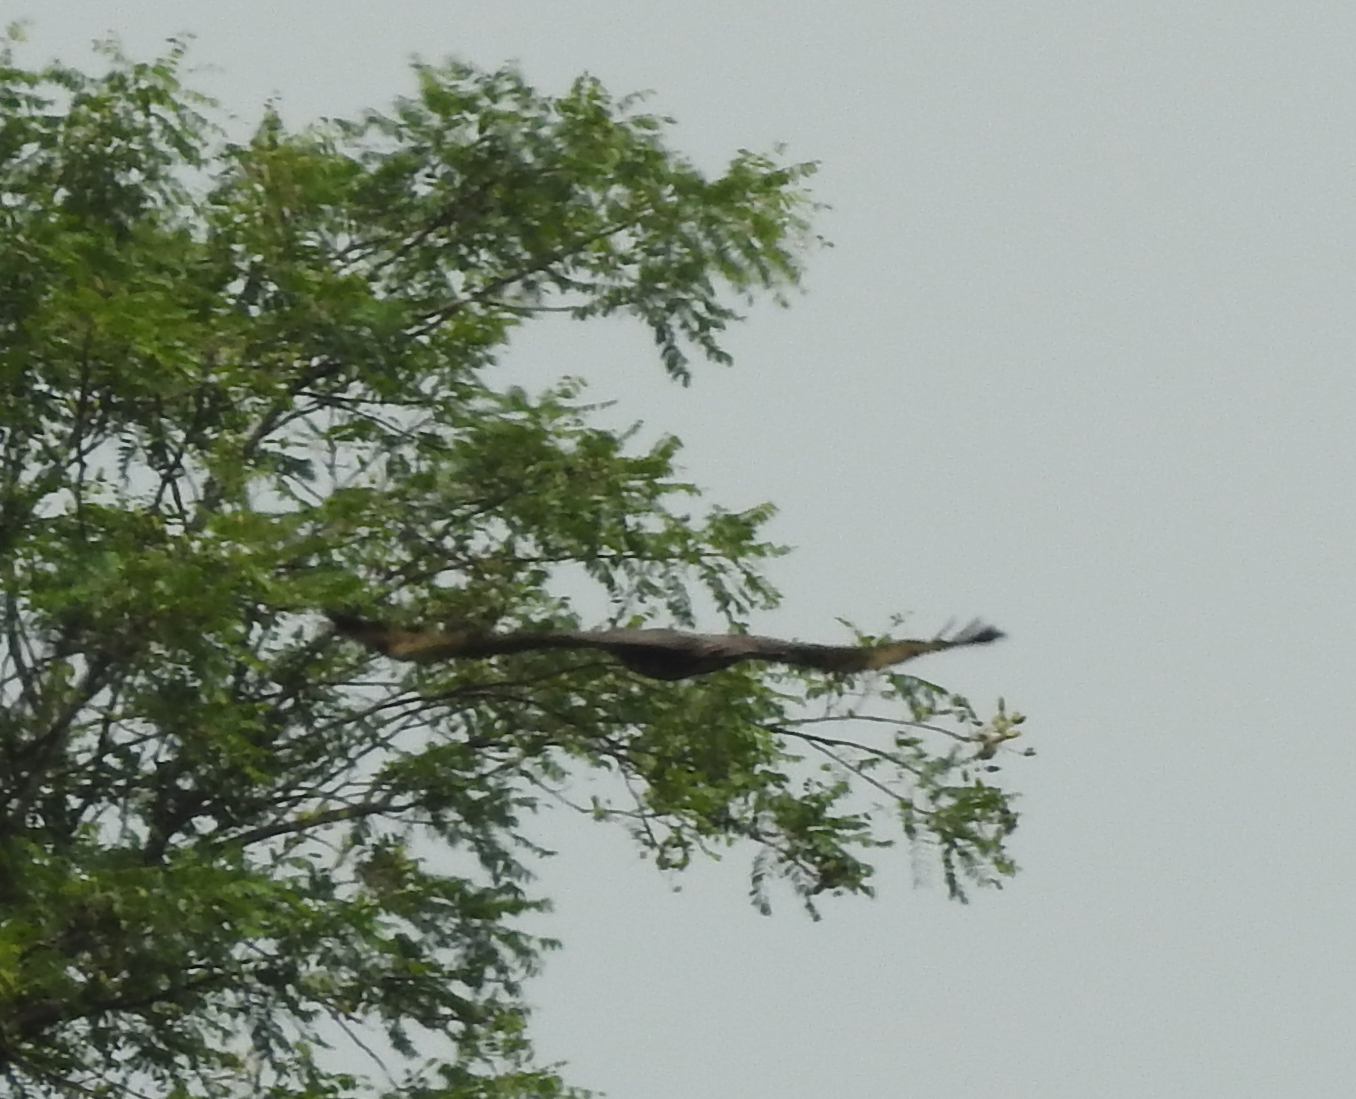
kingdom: Animalia
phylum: Chordata
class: Aves
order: Accipitriformes
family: Accipitridae
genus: Pernis
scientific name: Pernis ptilorhynchus
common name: Crested honey buzzard
